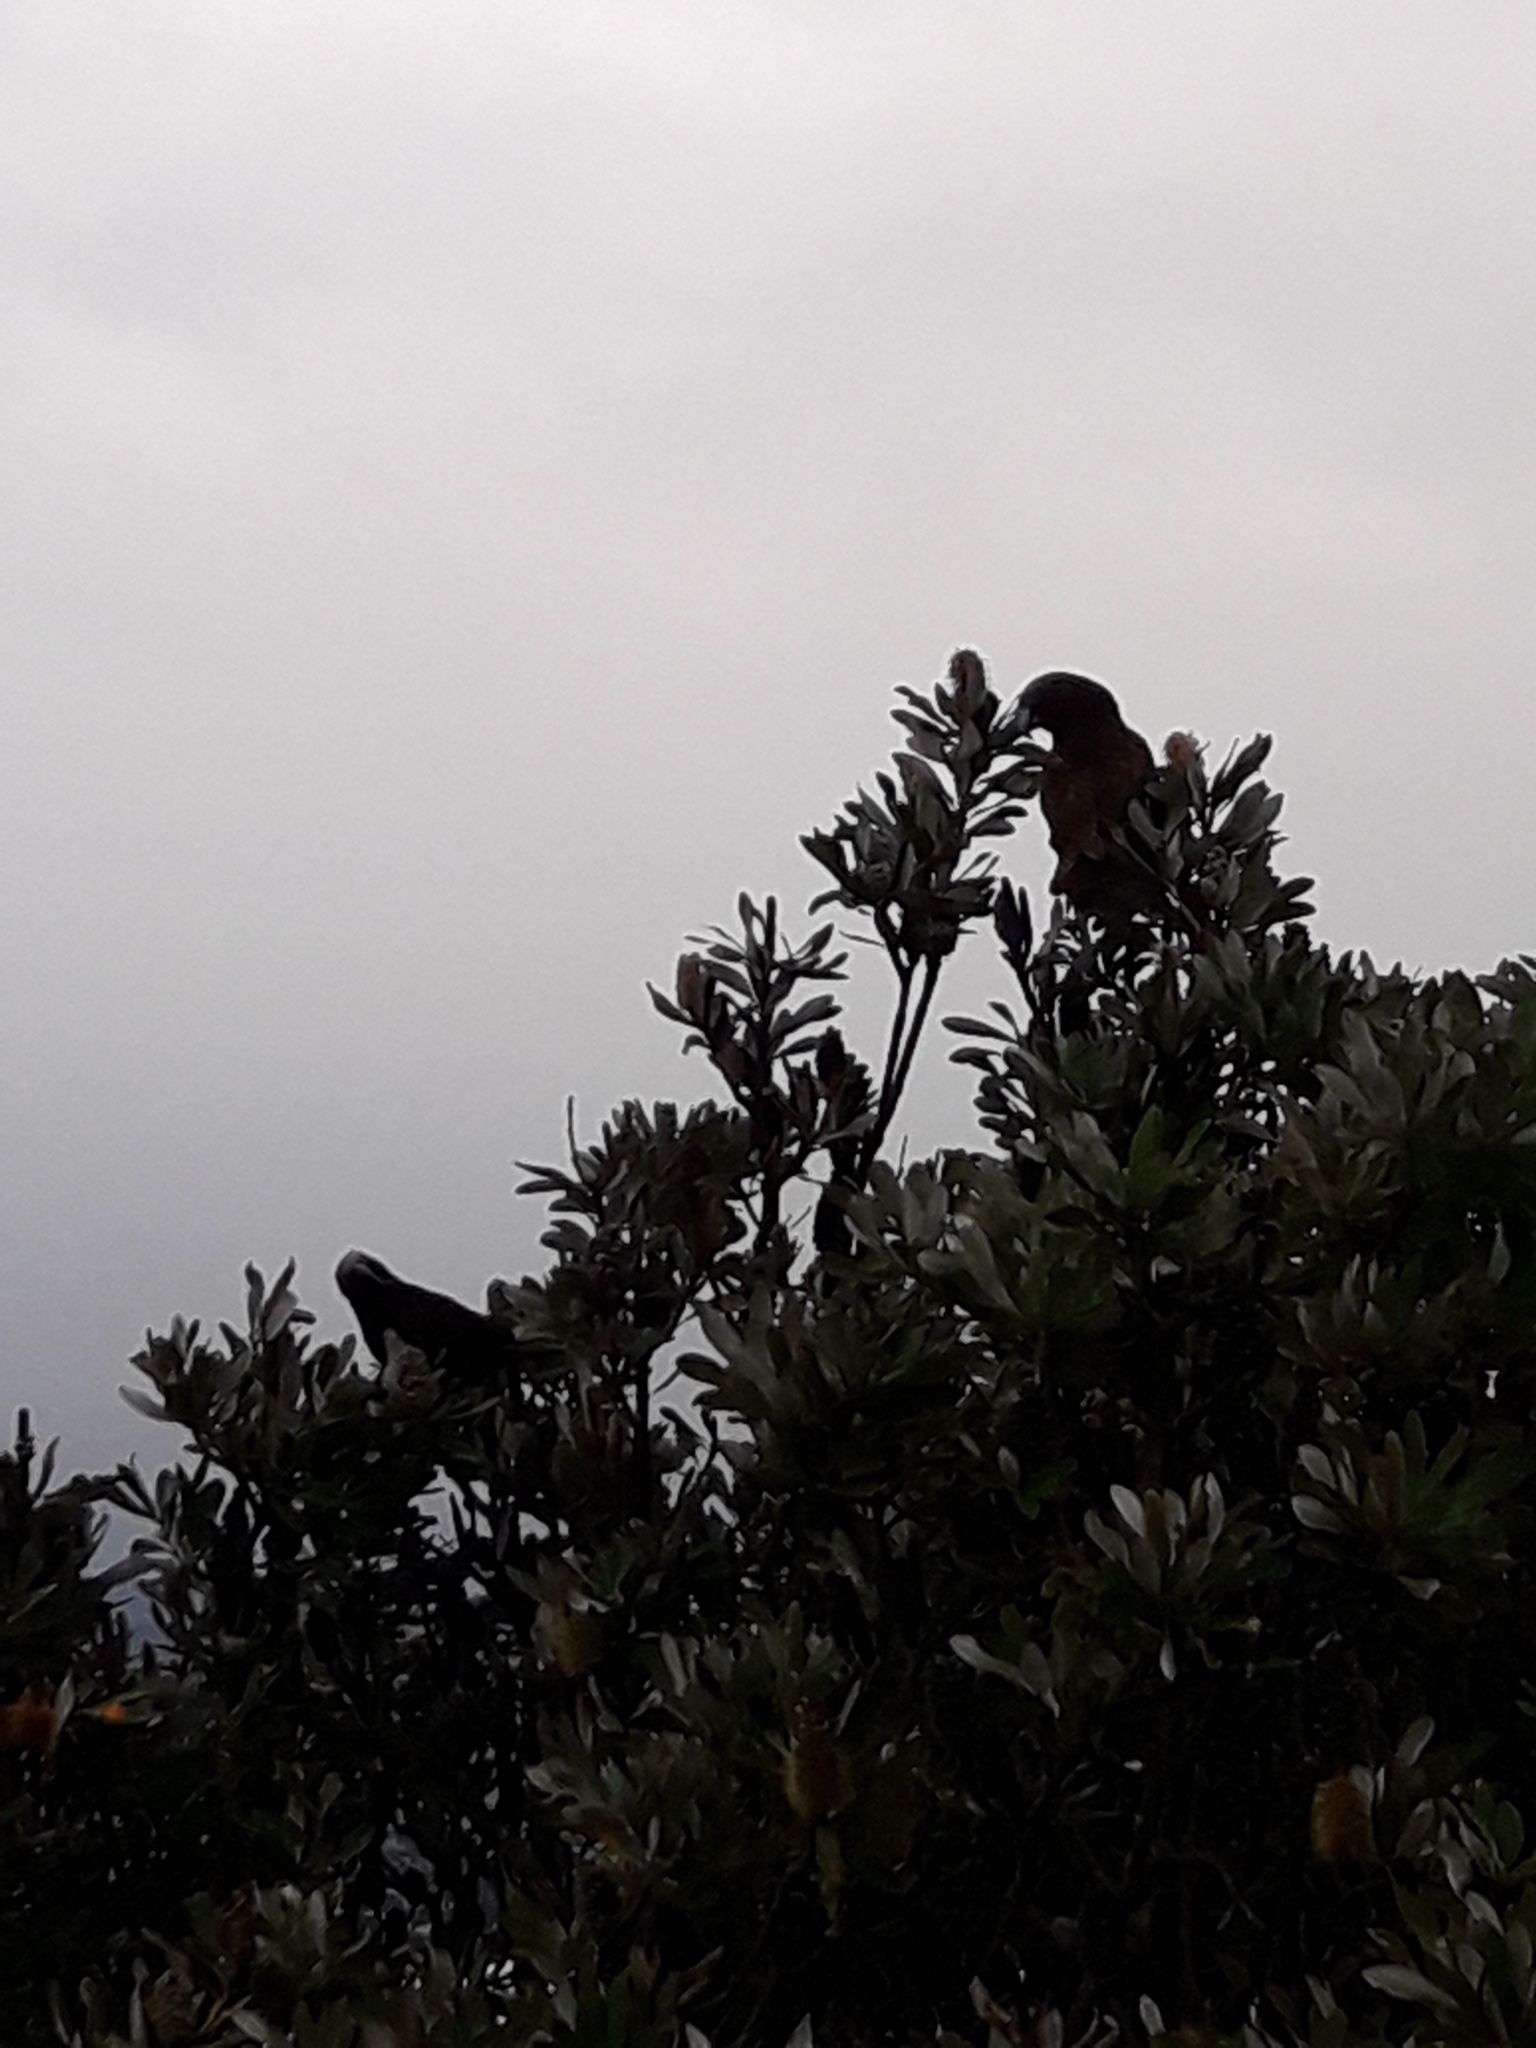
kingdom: Animalia
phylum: Chordata
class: Aves
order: Psittaciformes
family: Psittacidae
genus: Nestor
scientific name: Nestor meridionalis
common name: New zealand kaka
